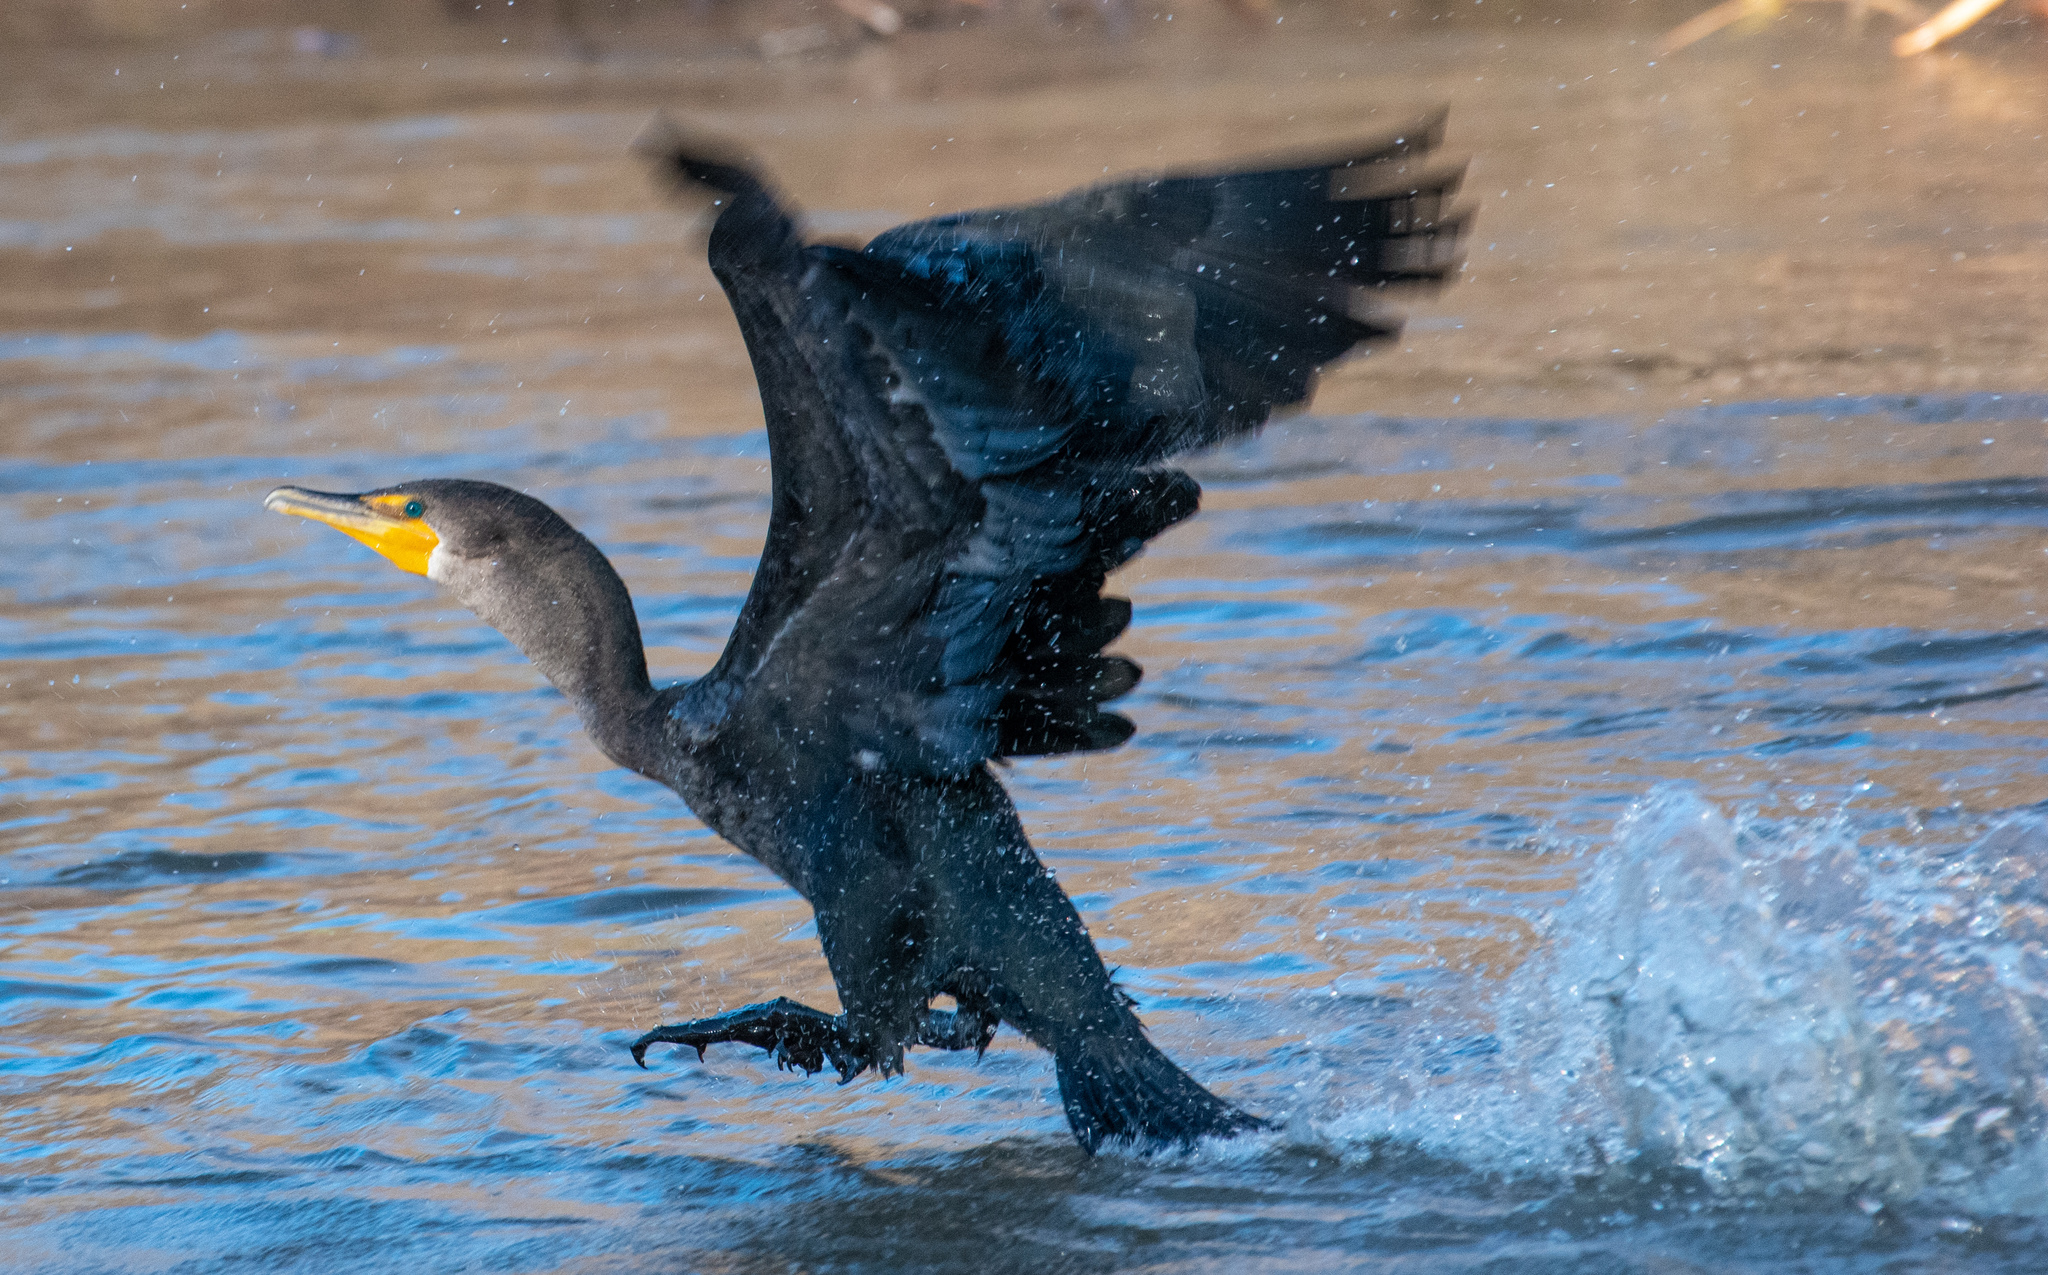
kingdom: Animalia
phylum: Chordata
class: Aves
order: Suliformes
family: Phalacrocoracidae
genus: Phalacrocorax
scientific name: Phalacrocorax auritus
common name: Double-crested cormorant
